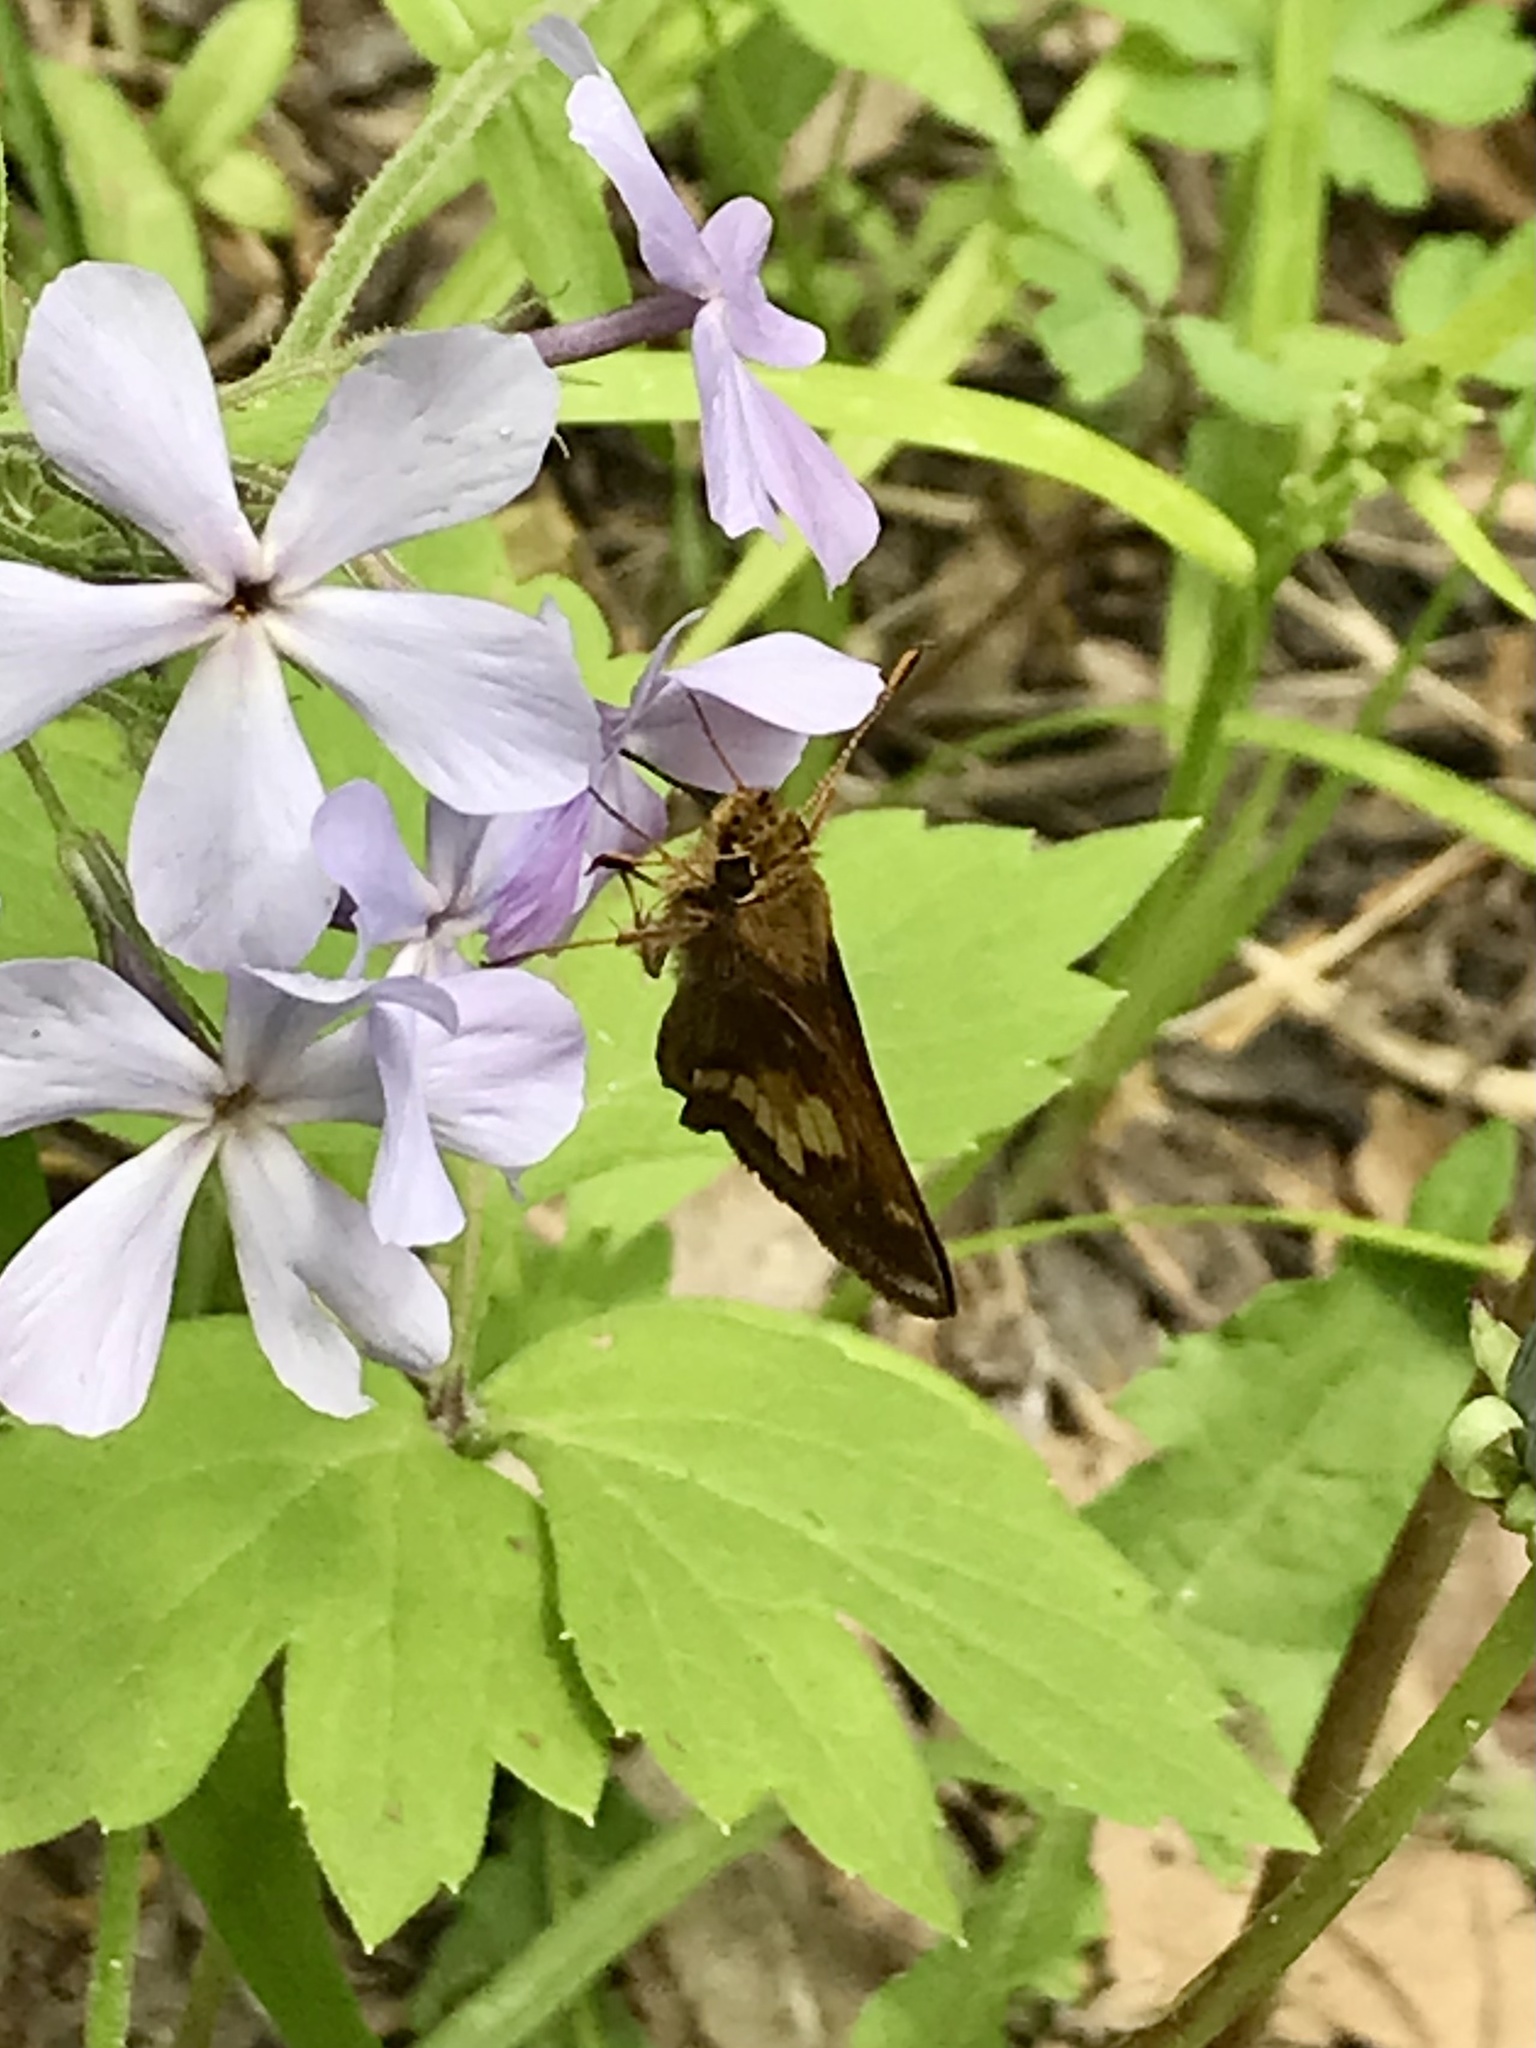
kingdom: Animalia
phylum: Arthropoda
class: Insecta
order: Lepidoptera
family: Hesperiidae
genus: Lon
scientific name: Lon hobomok
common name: Hobomok skipper
